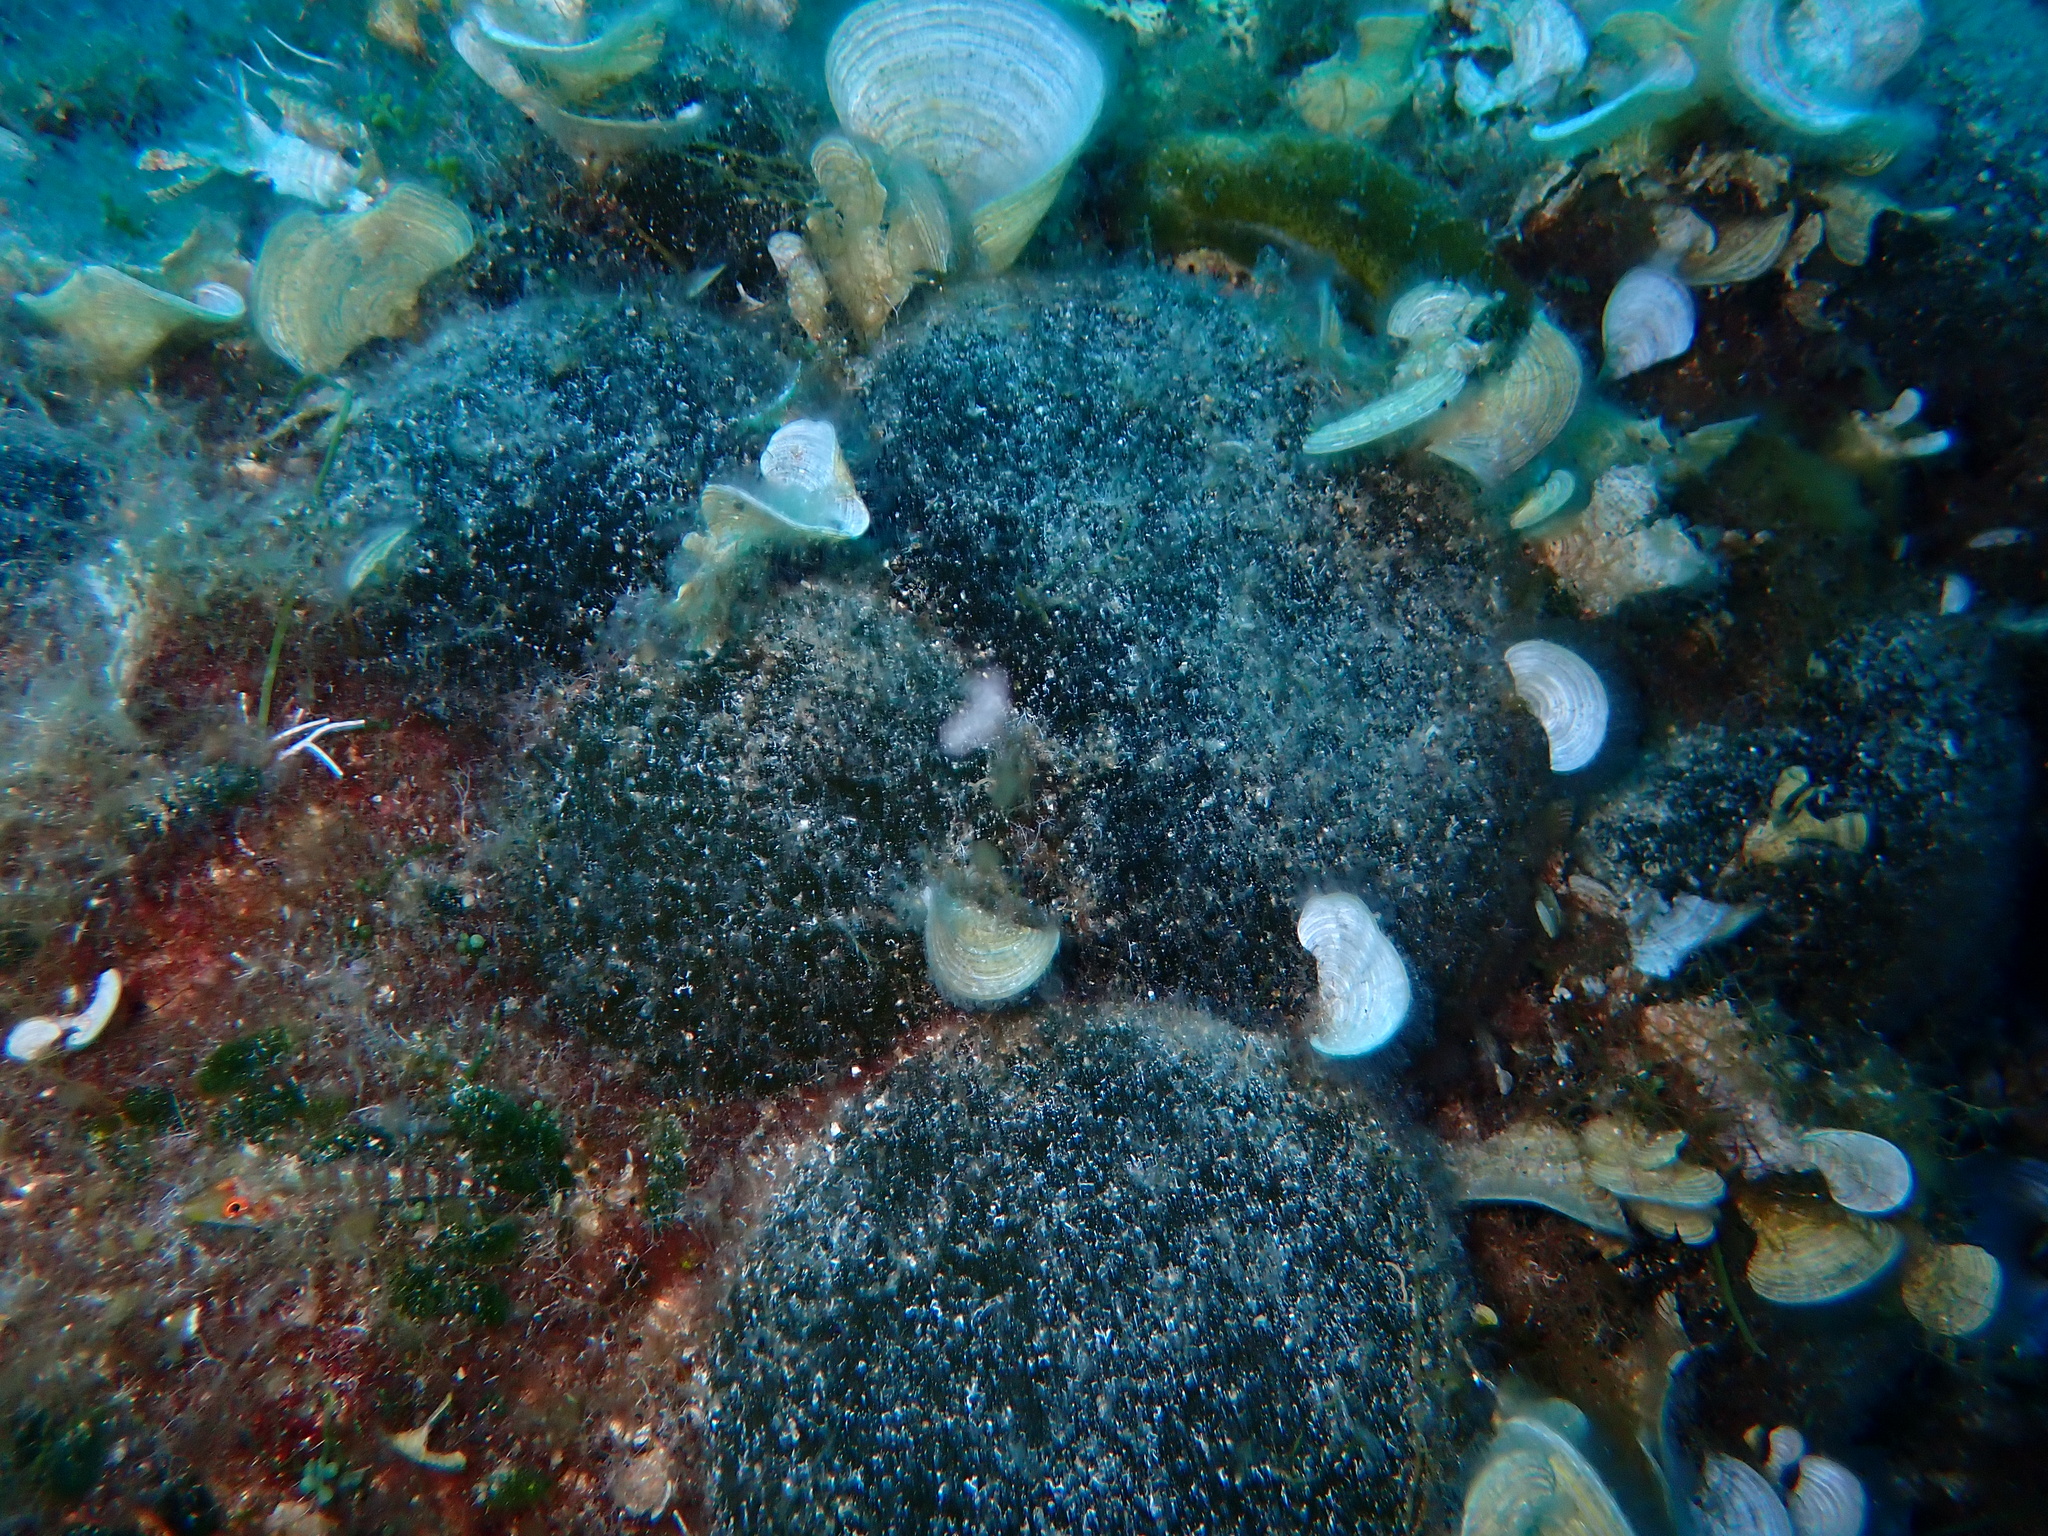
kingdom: Plantae
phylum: Chlorophyta
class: Ulvophyceae
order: Bryopsidales
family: Codiaceae
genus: Codium
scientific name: Codium bursa
